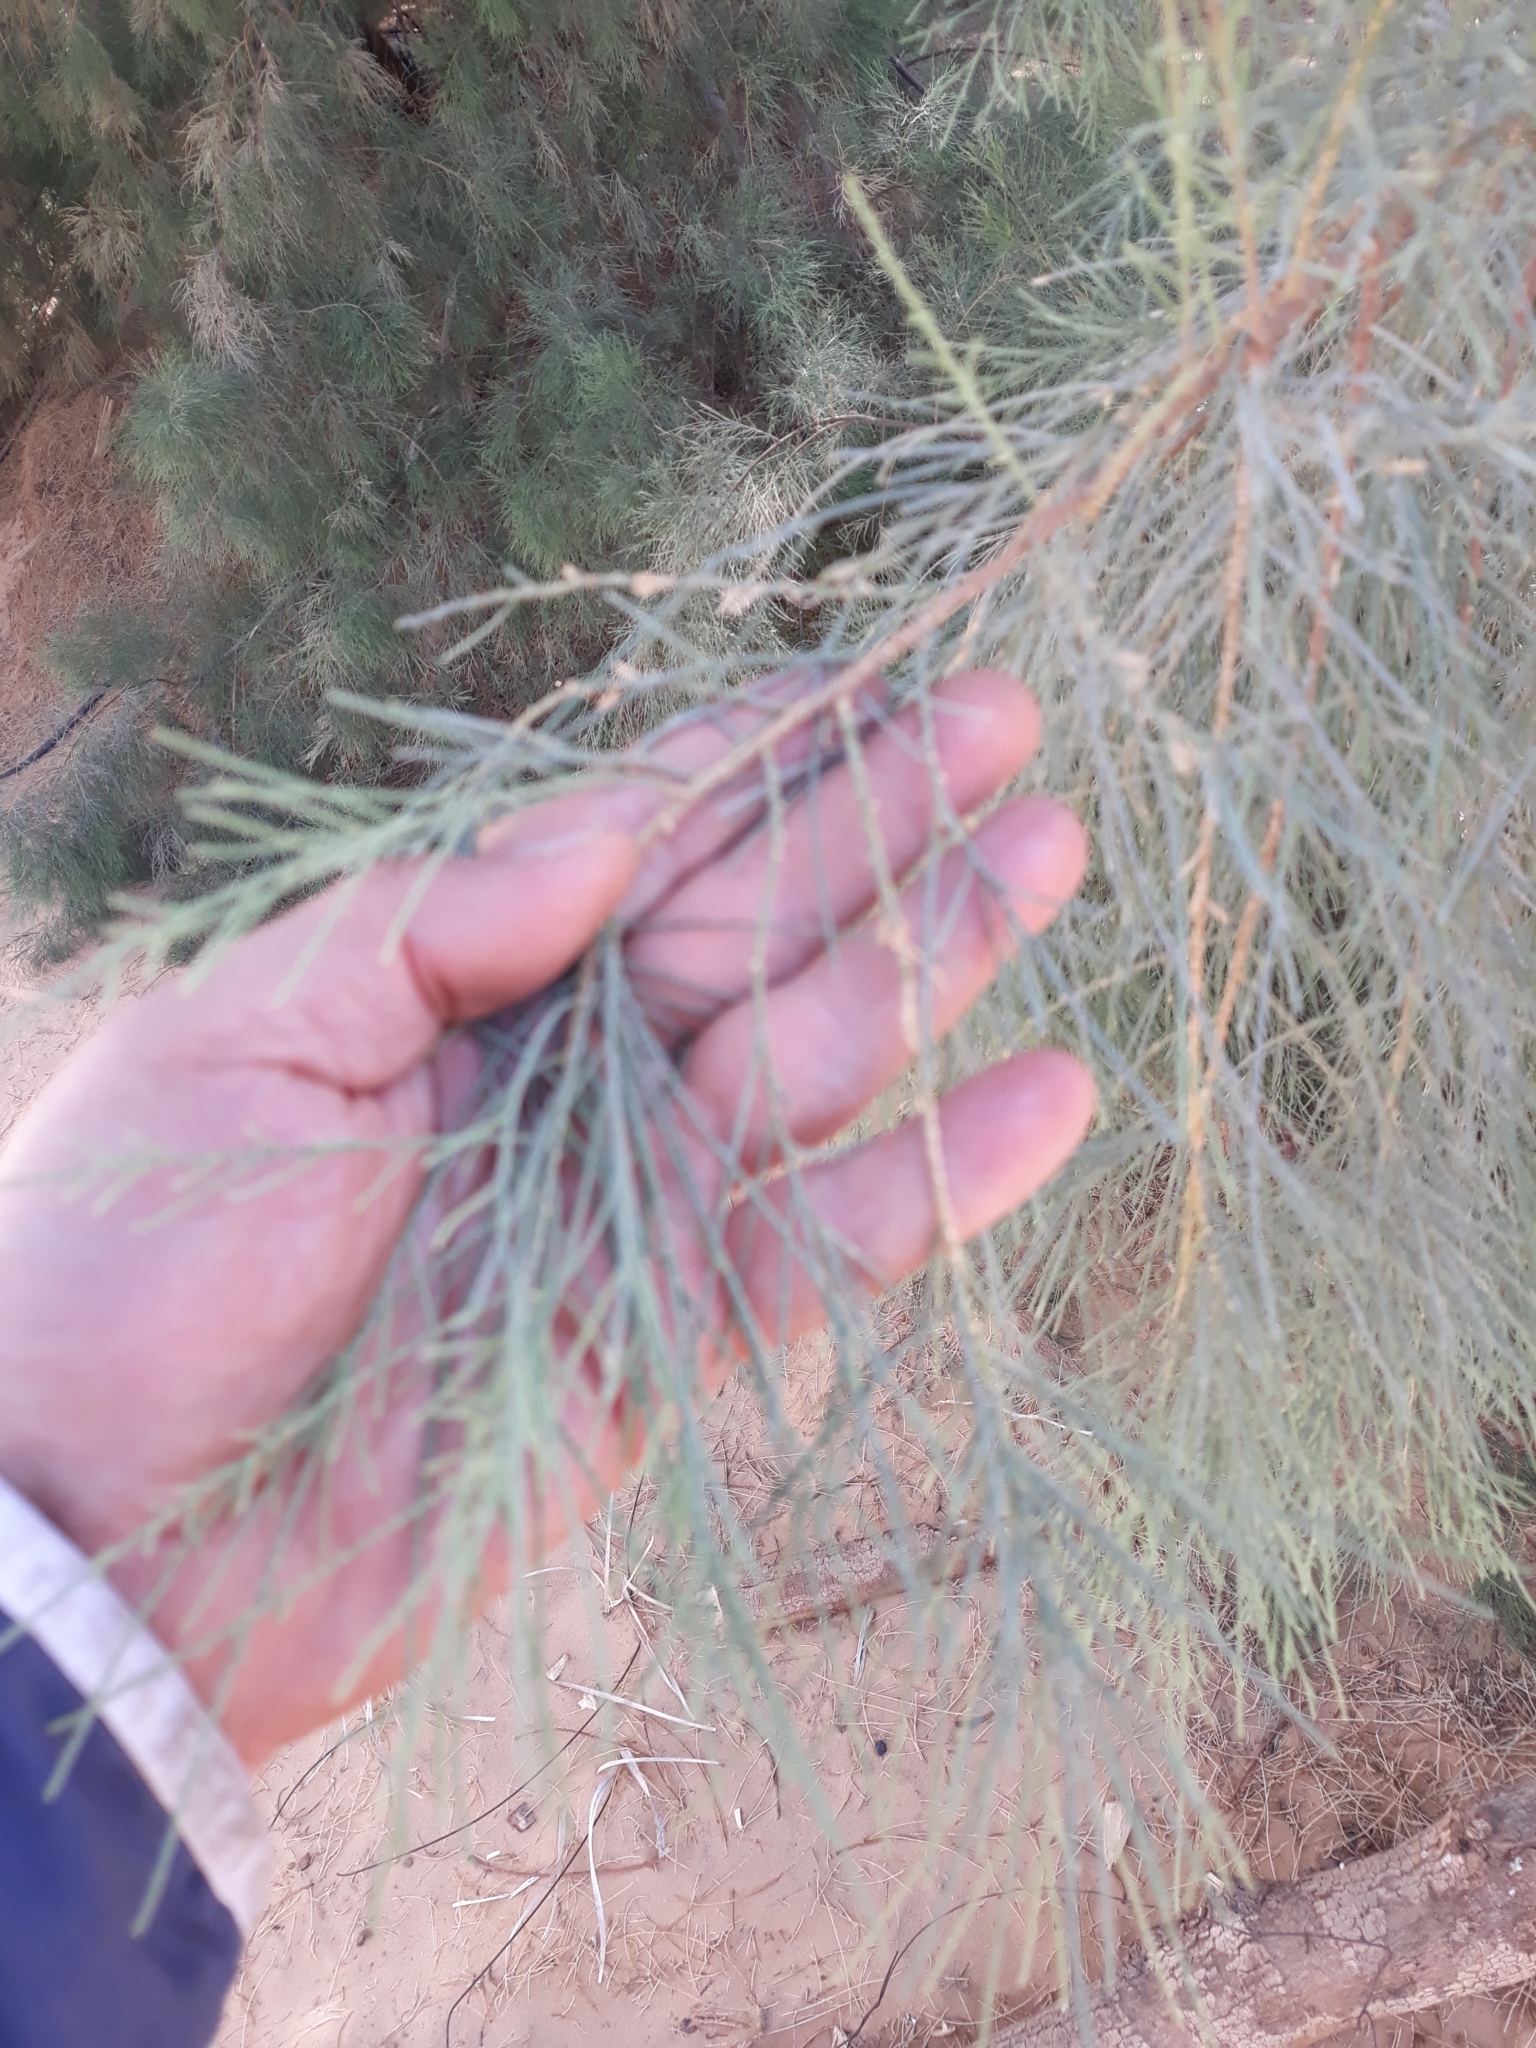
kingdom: Plantae
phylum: Tracheophyta
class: Magnoliopsida
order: Caryophyllales
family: Tamaricaceae
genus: Tamarix
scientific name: Tamarix aphylla
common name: Athel tamarisk
